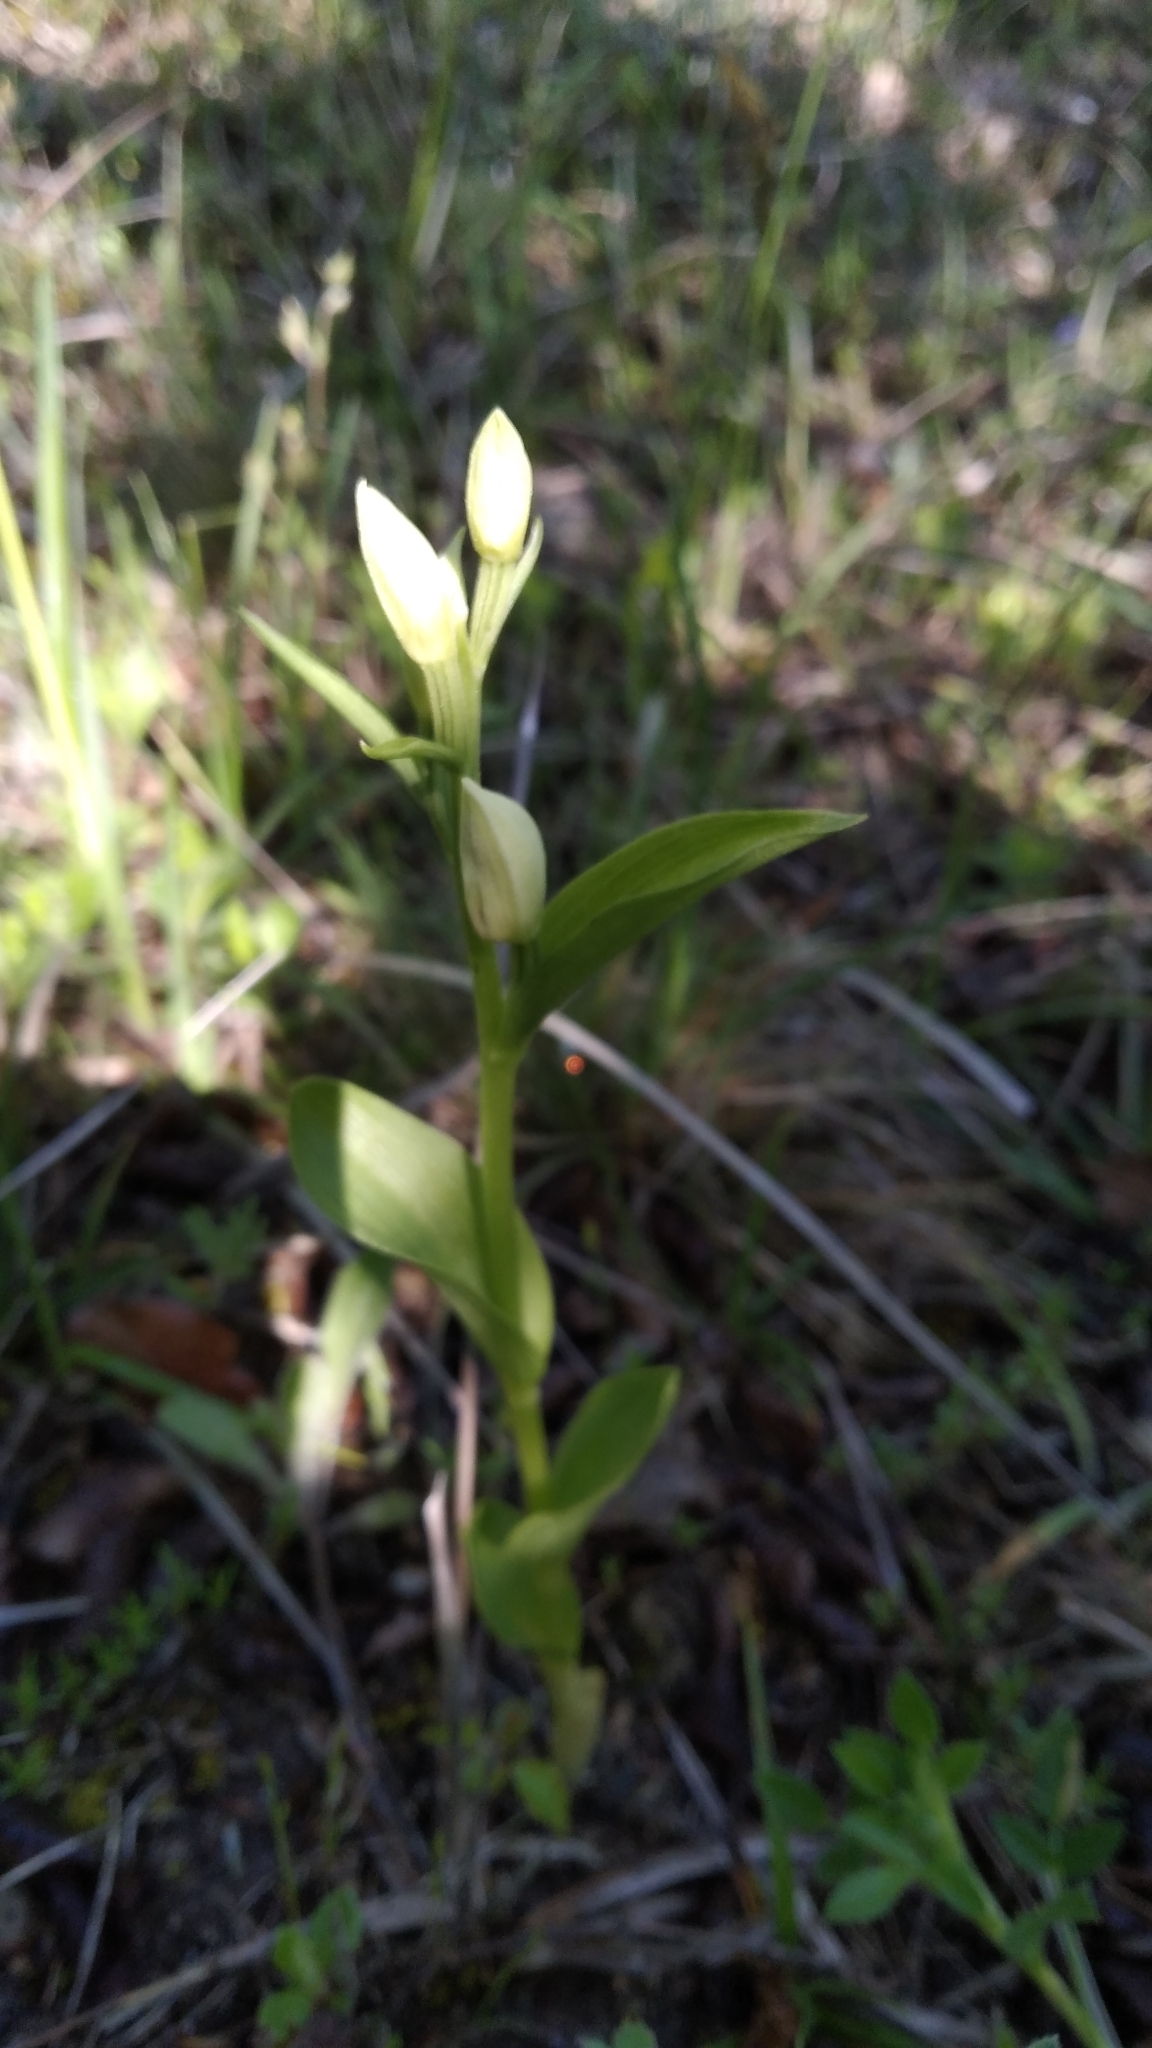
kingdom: Plantae
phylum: Tracheophyta
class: Liliopsida
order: Asparagales
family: Orchidaceae
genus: Cephalanthera
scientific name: Cephalanthera damasonium
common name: White helleborine
